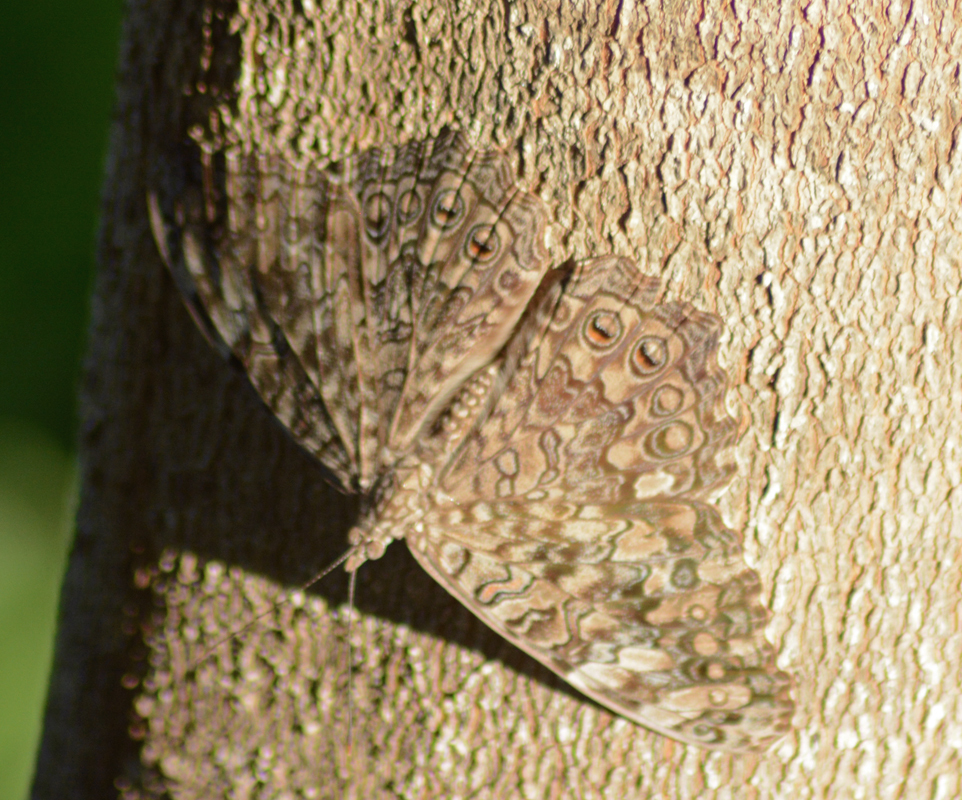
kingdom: Animalia
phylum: Arthropoda
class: Insecta
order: Lepidoptera
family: Nymphalidae
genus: Hamadryas
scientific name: Hamadryas februa
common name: Gray cracker
